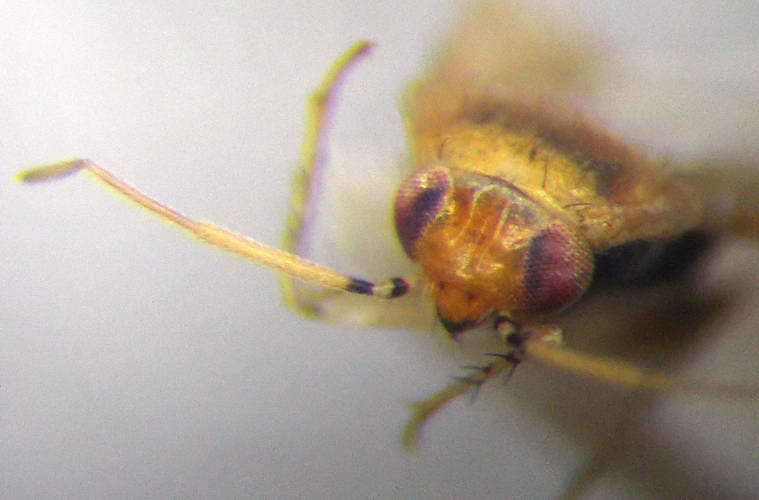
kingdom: Animalia
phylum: Arthropoda
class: Insecta
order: Hemiptera
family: Miridae
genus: Campylomma
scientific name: Campylomma verbasci
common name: Mullein bug
